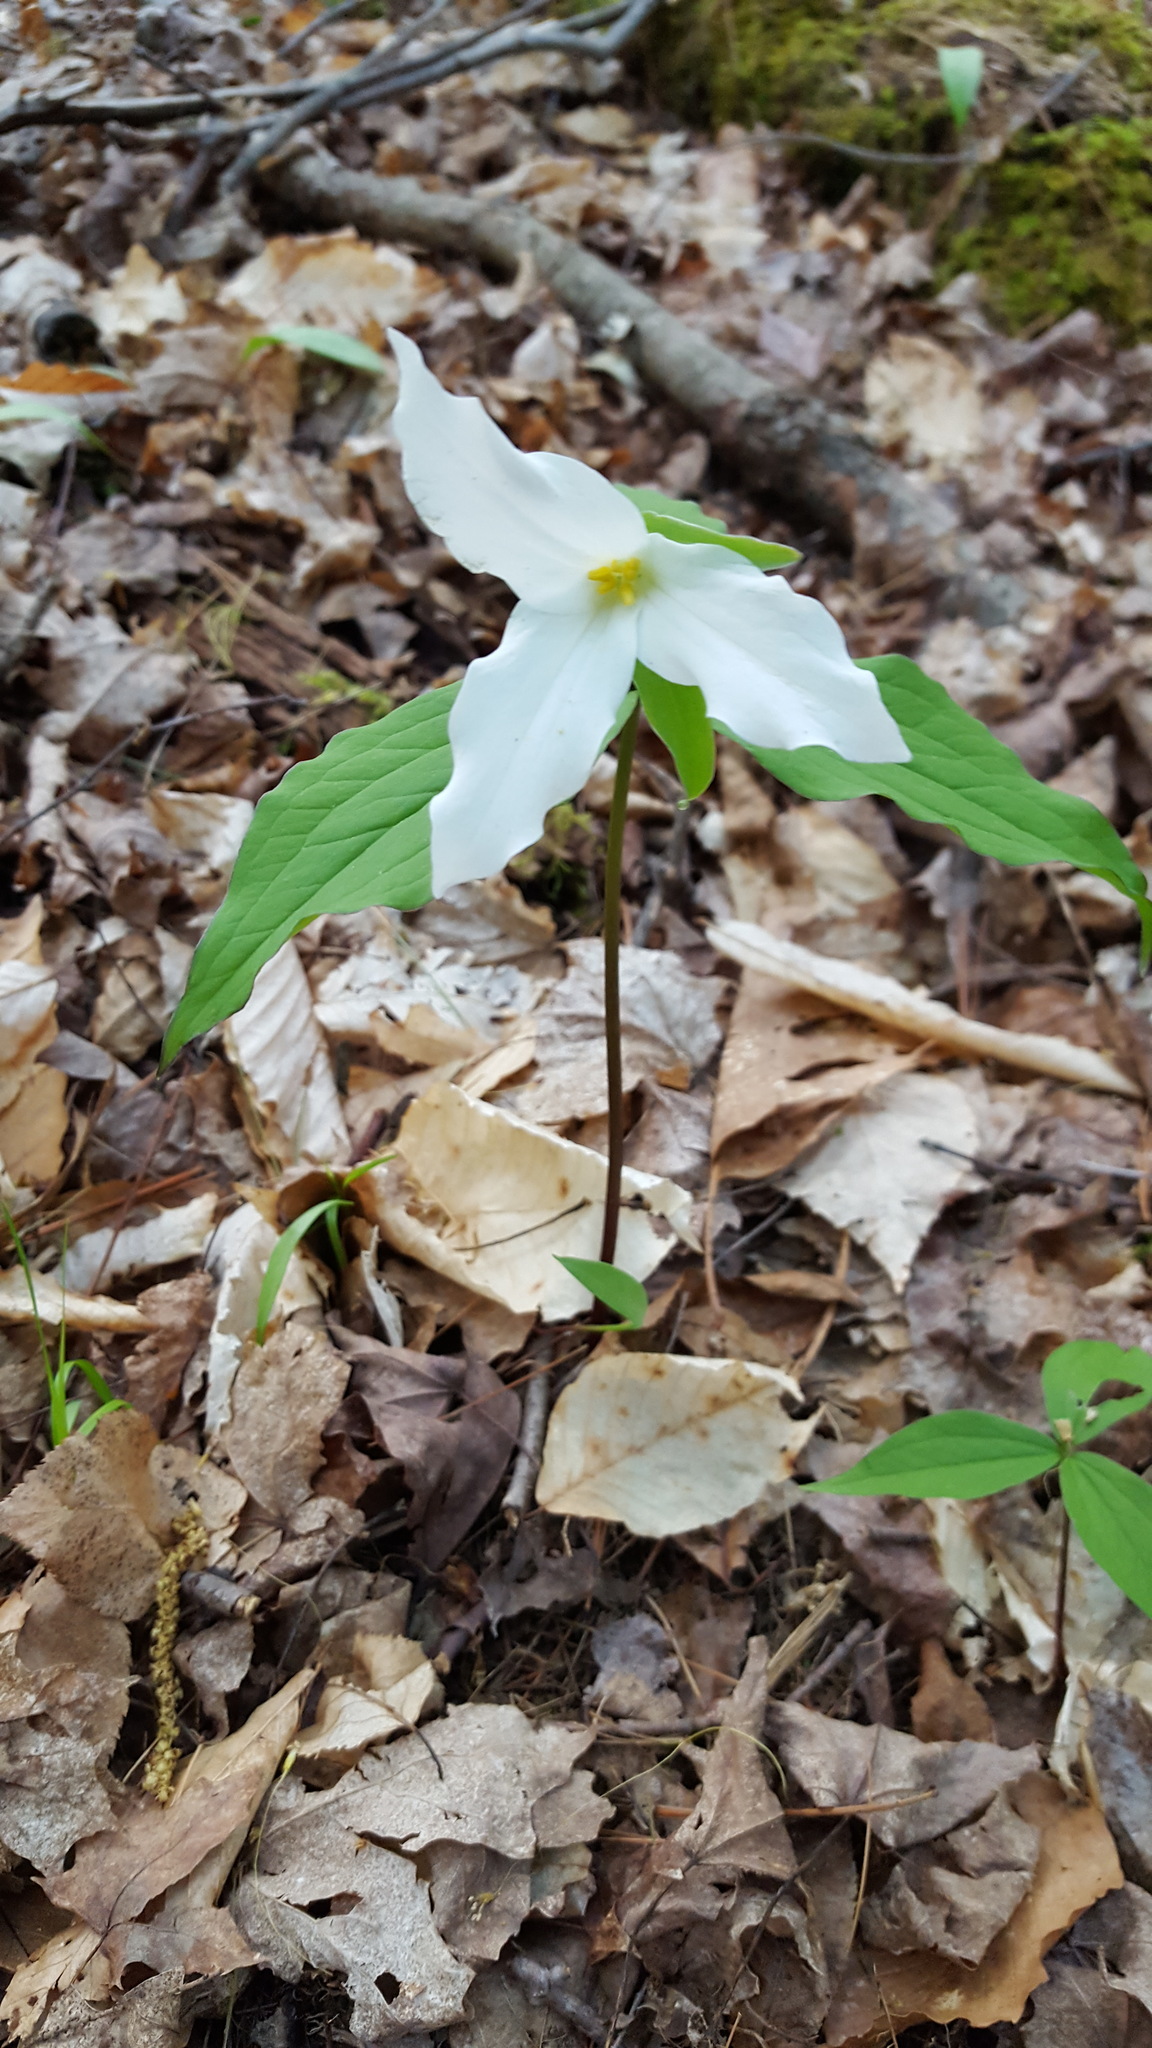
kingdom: Plantae
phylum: Tracheophyta
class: Liliopsida
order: Liliales
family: Melanthiaceae
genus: Trillium
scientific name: Trillium grandiflorum
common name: Great white trillium
